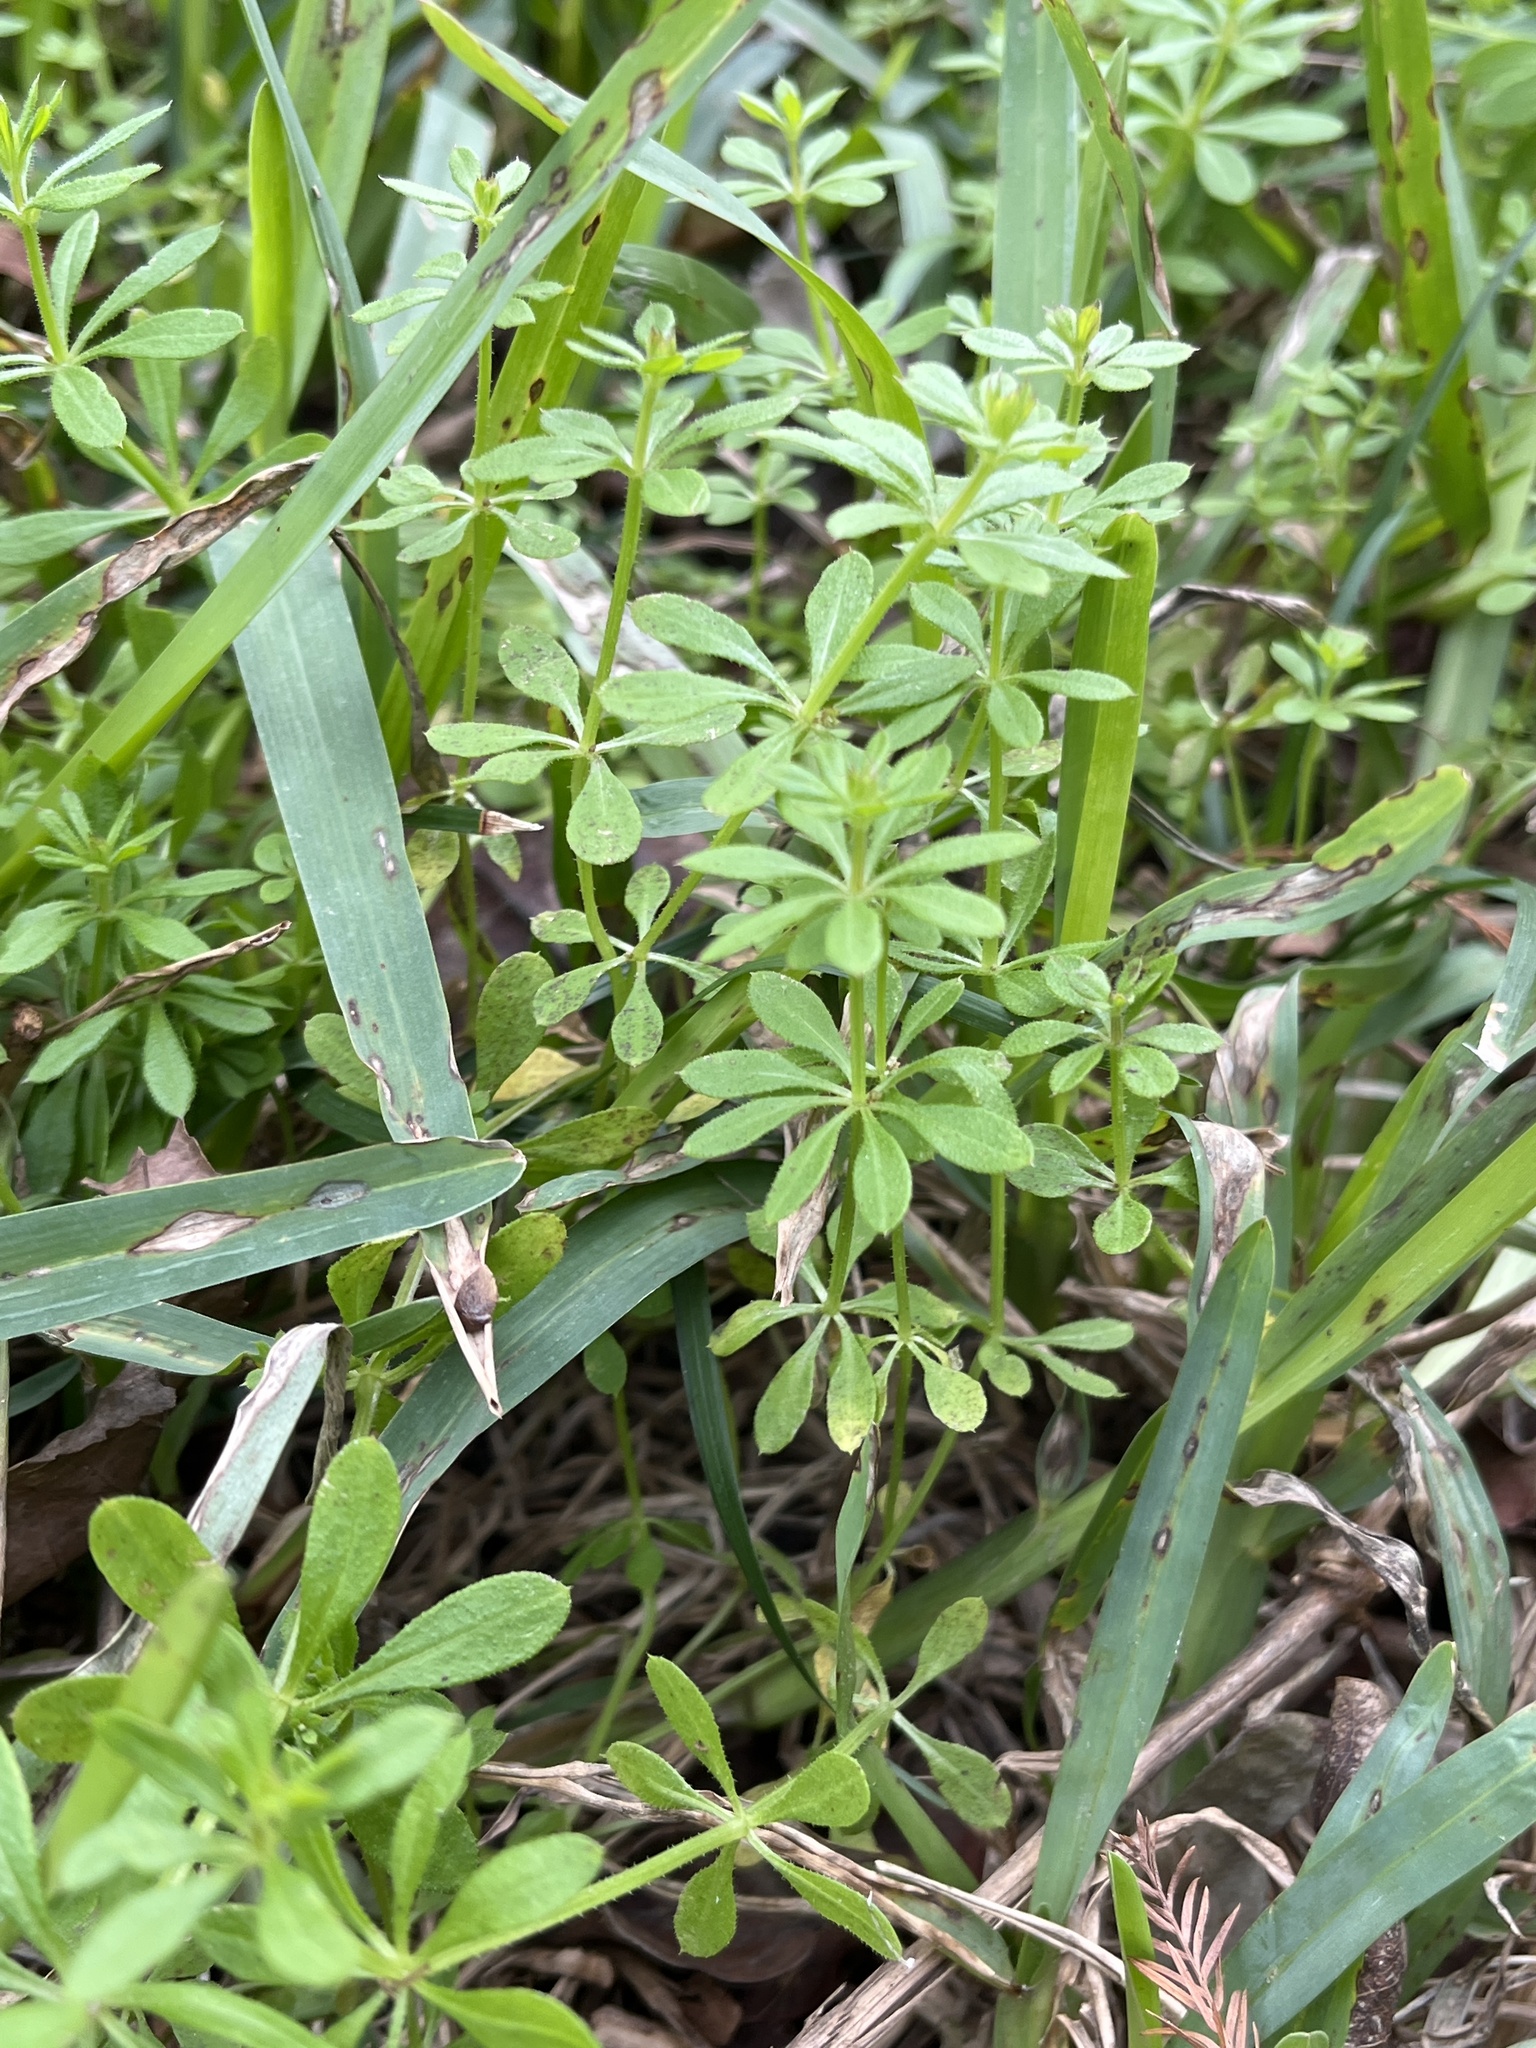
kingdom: Plantae
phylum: Tracheophyta
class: Magnoliopsida
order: Gentianales
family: Rubiaceae
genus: Galium
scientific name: Galium aparine
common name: Cleavers
